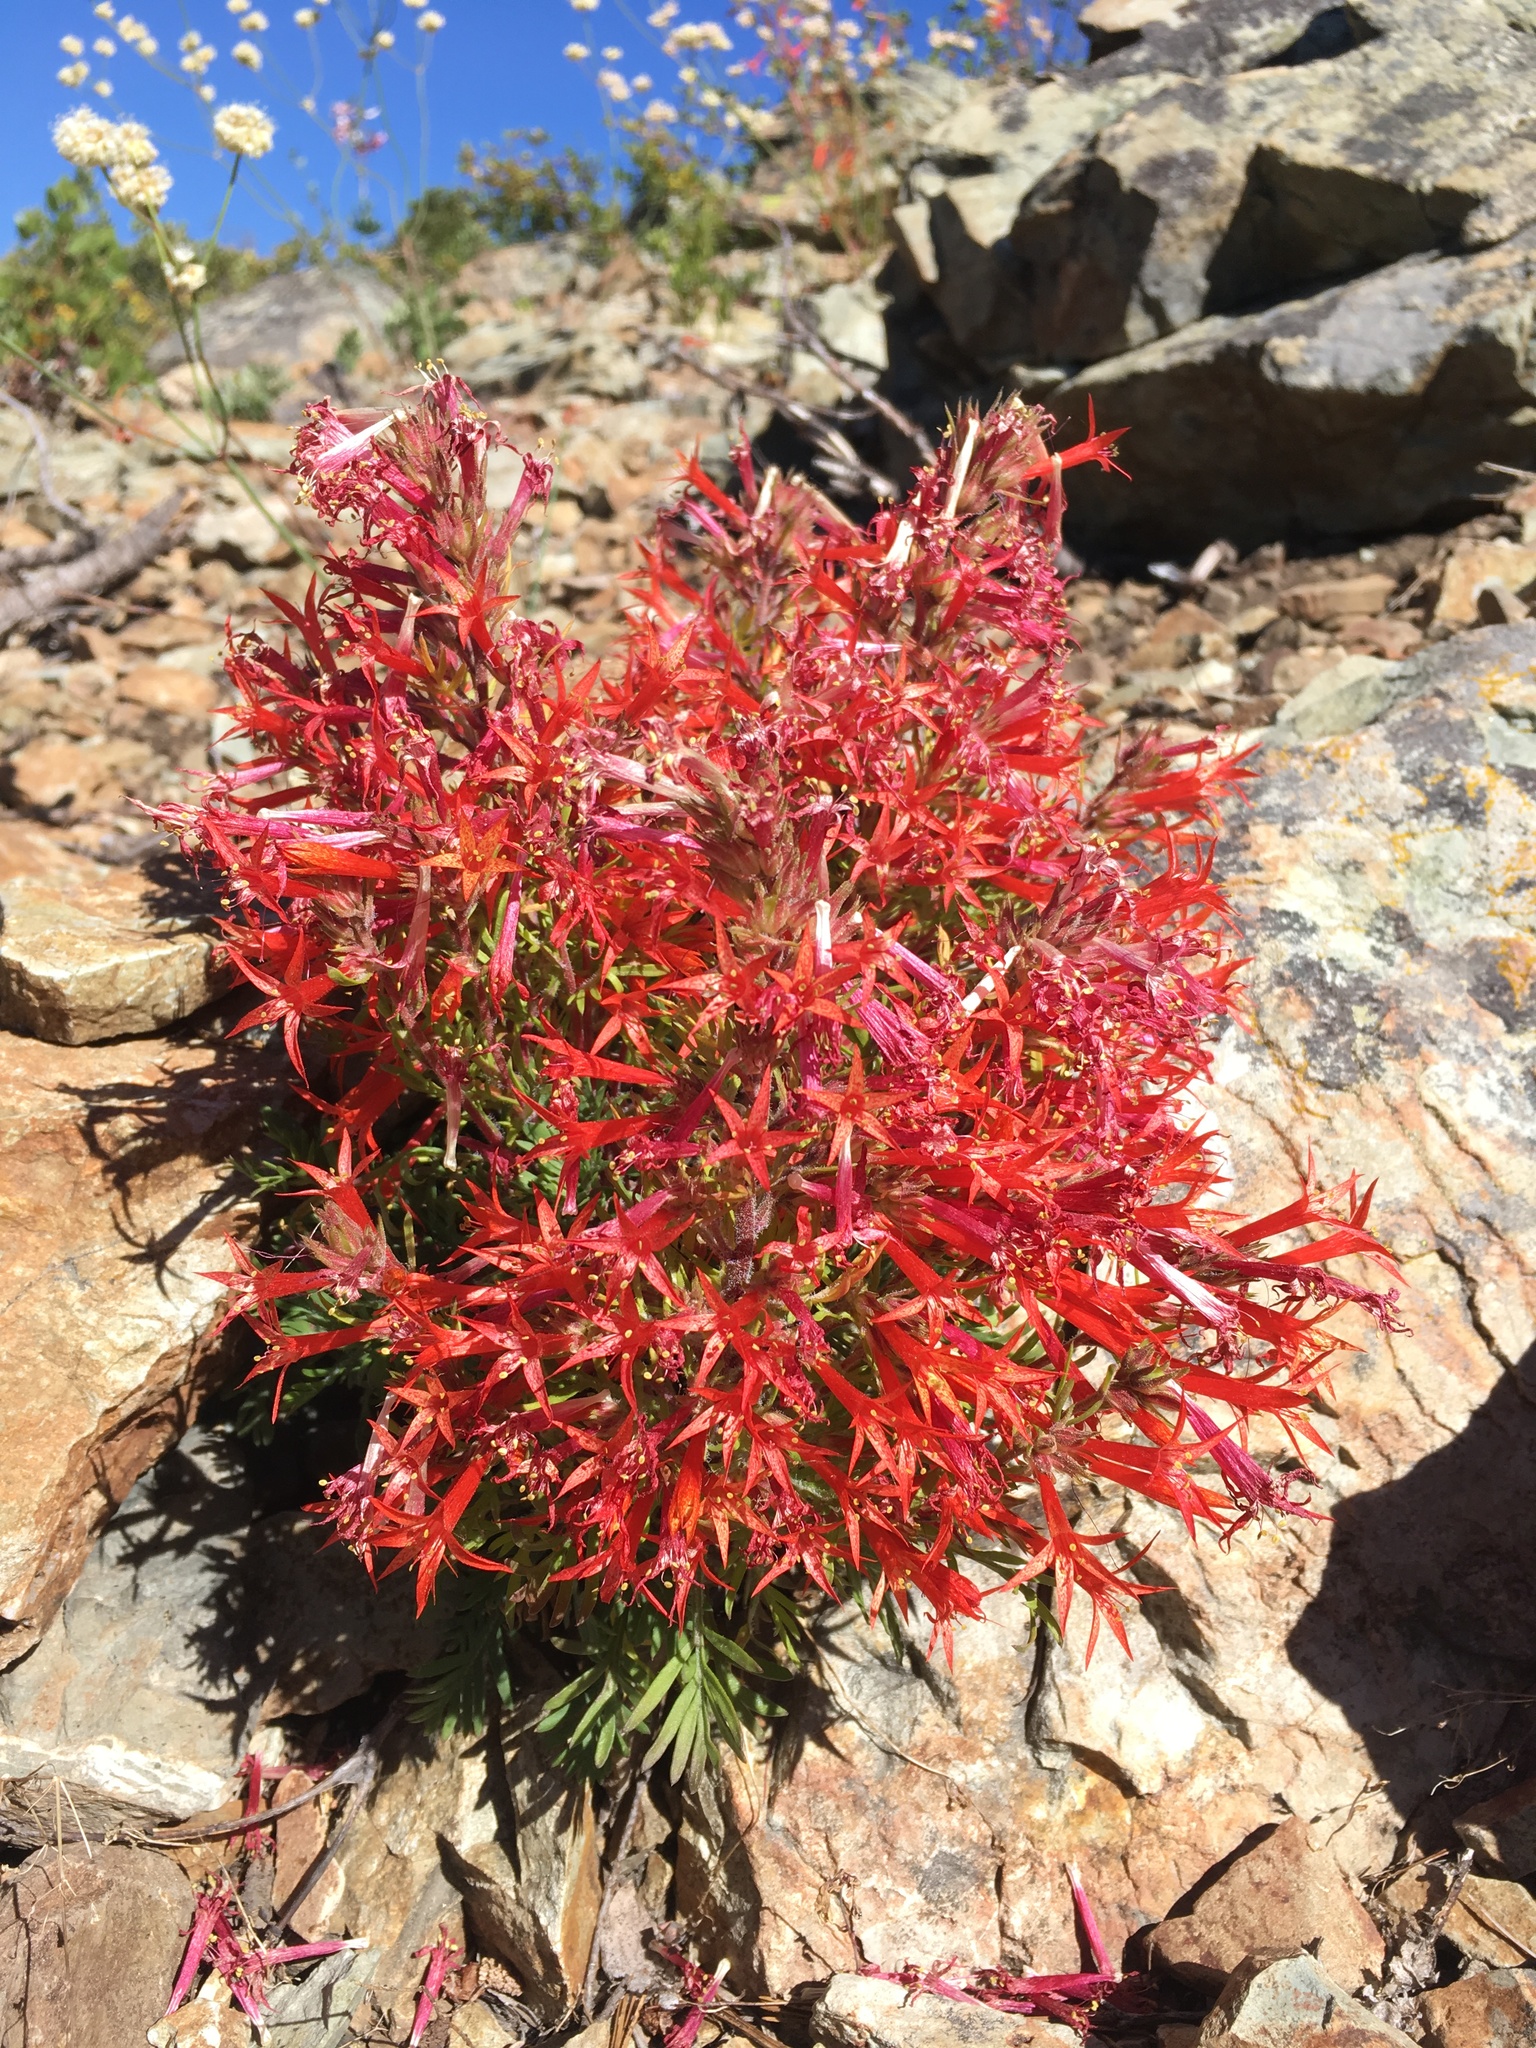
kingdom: Plantae
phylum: Tracheophyta
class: Magnoliopsida
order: Ericales
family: Polemoniaceae
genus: Ipomopsis
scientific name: Ipomopsis aggregata
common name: Scarlet gilia
